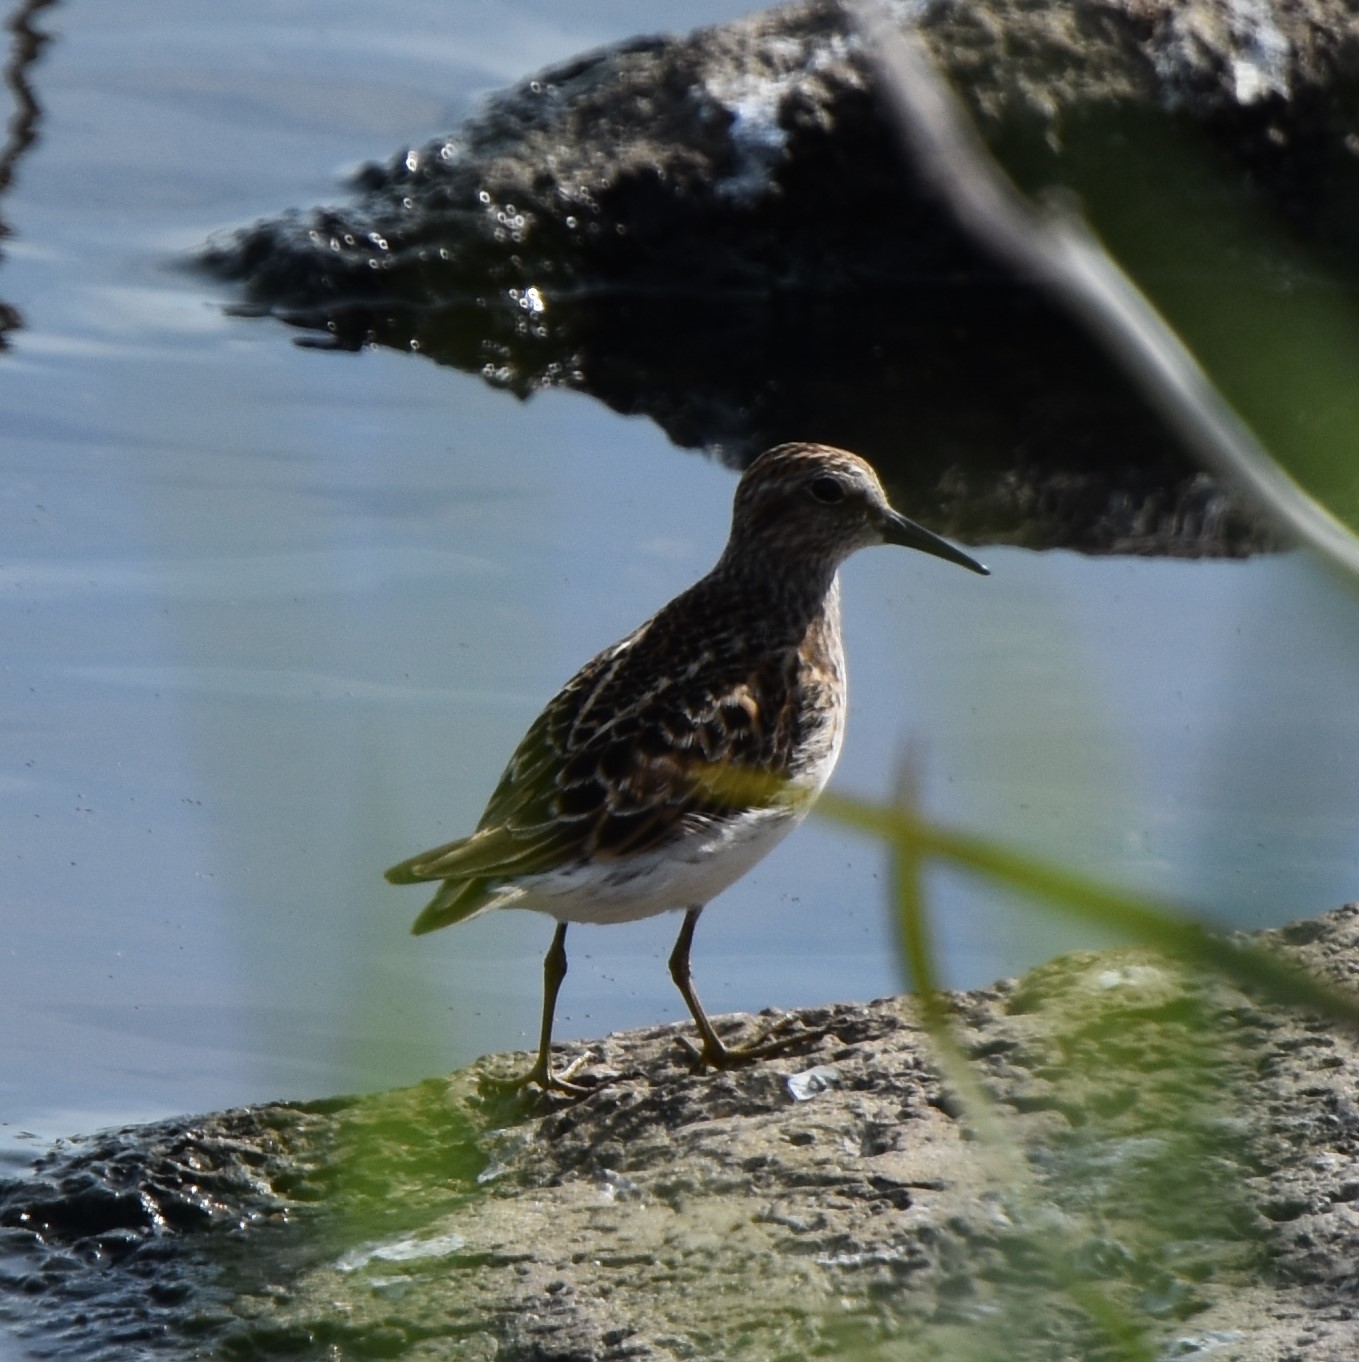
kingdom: Animalia
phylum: Chordata
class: Aves
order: Charadriiformes
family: Scolopacidae
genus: Calidris
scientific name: Calidris minutilla
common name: Least sandpiper
